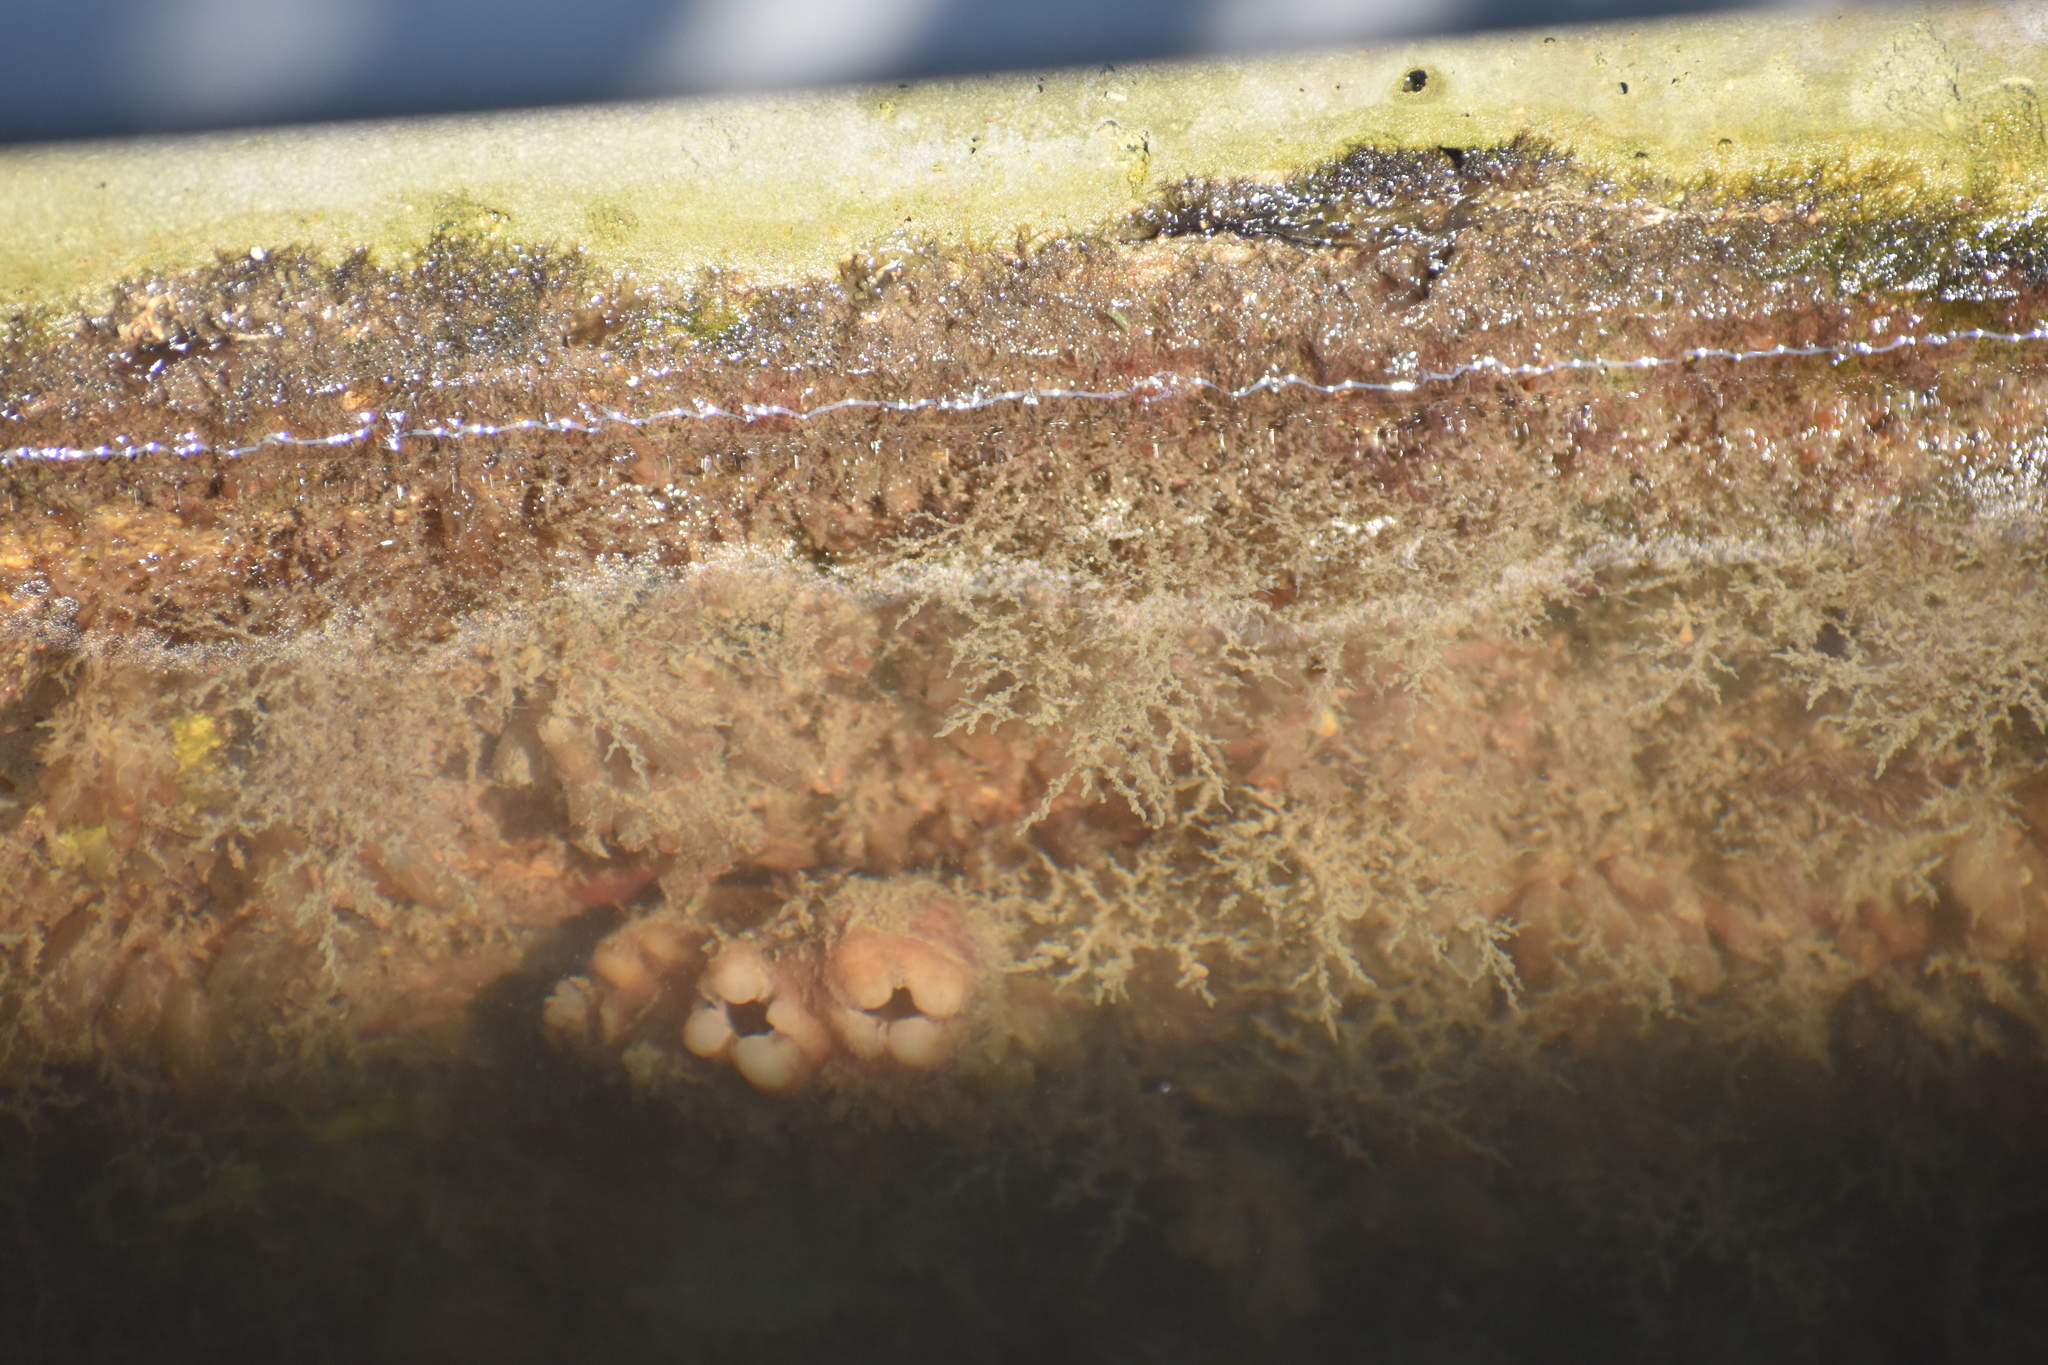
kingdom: Animalia
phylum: Chordata
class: Ascidiacea
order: Stolidobranchia
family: Styelidae
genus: Styela
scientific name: Styela plicata
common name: Pleated tunicate
